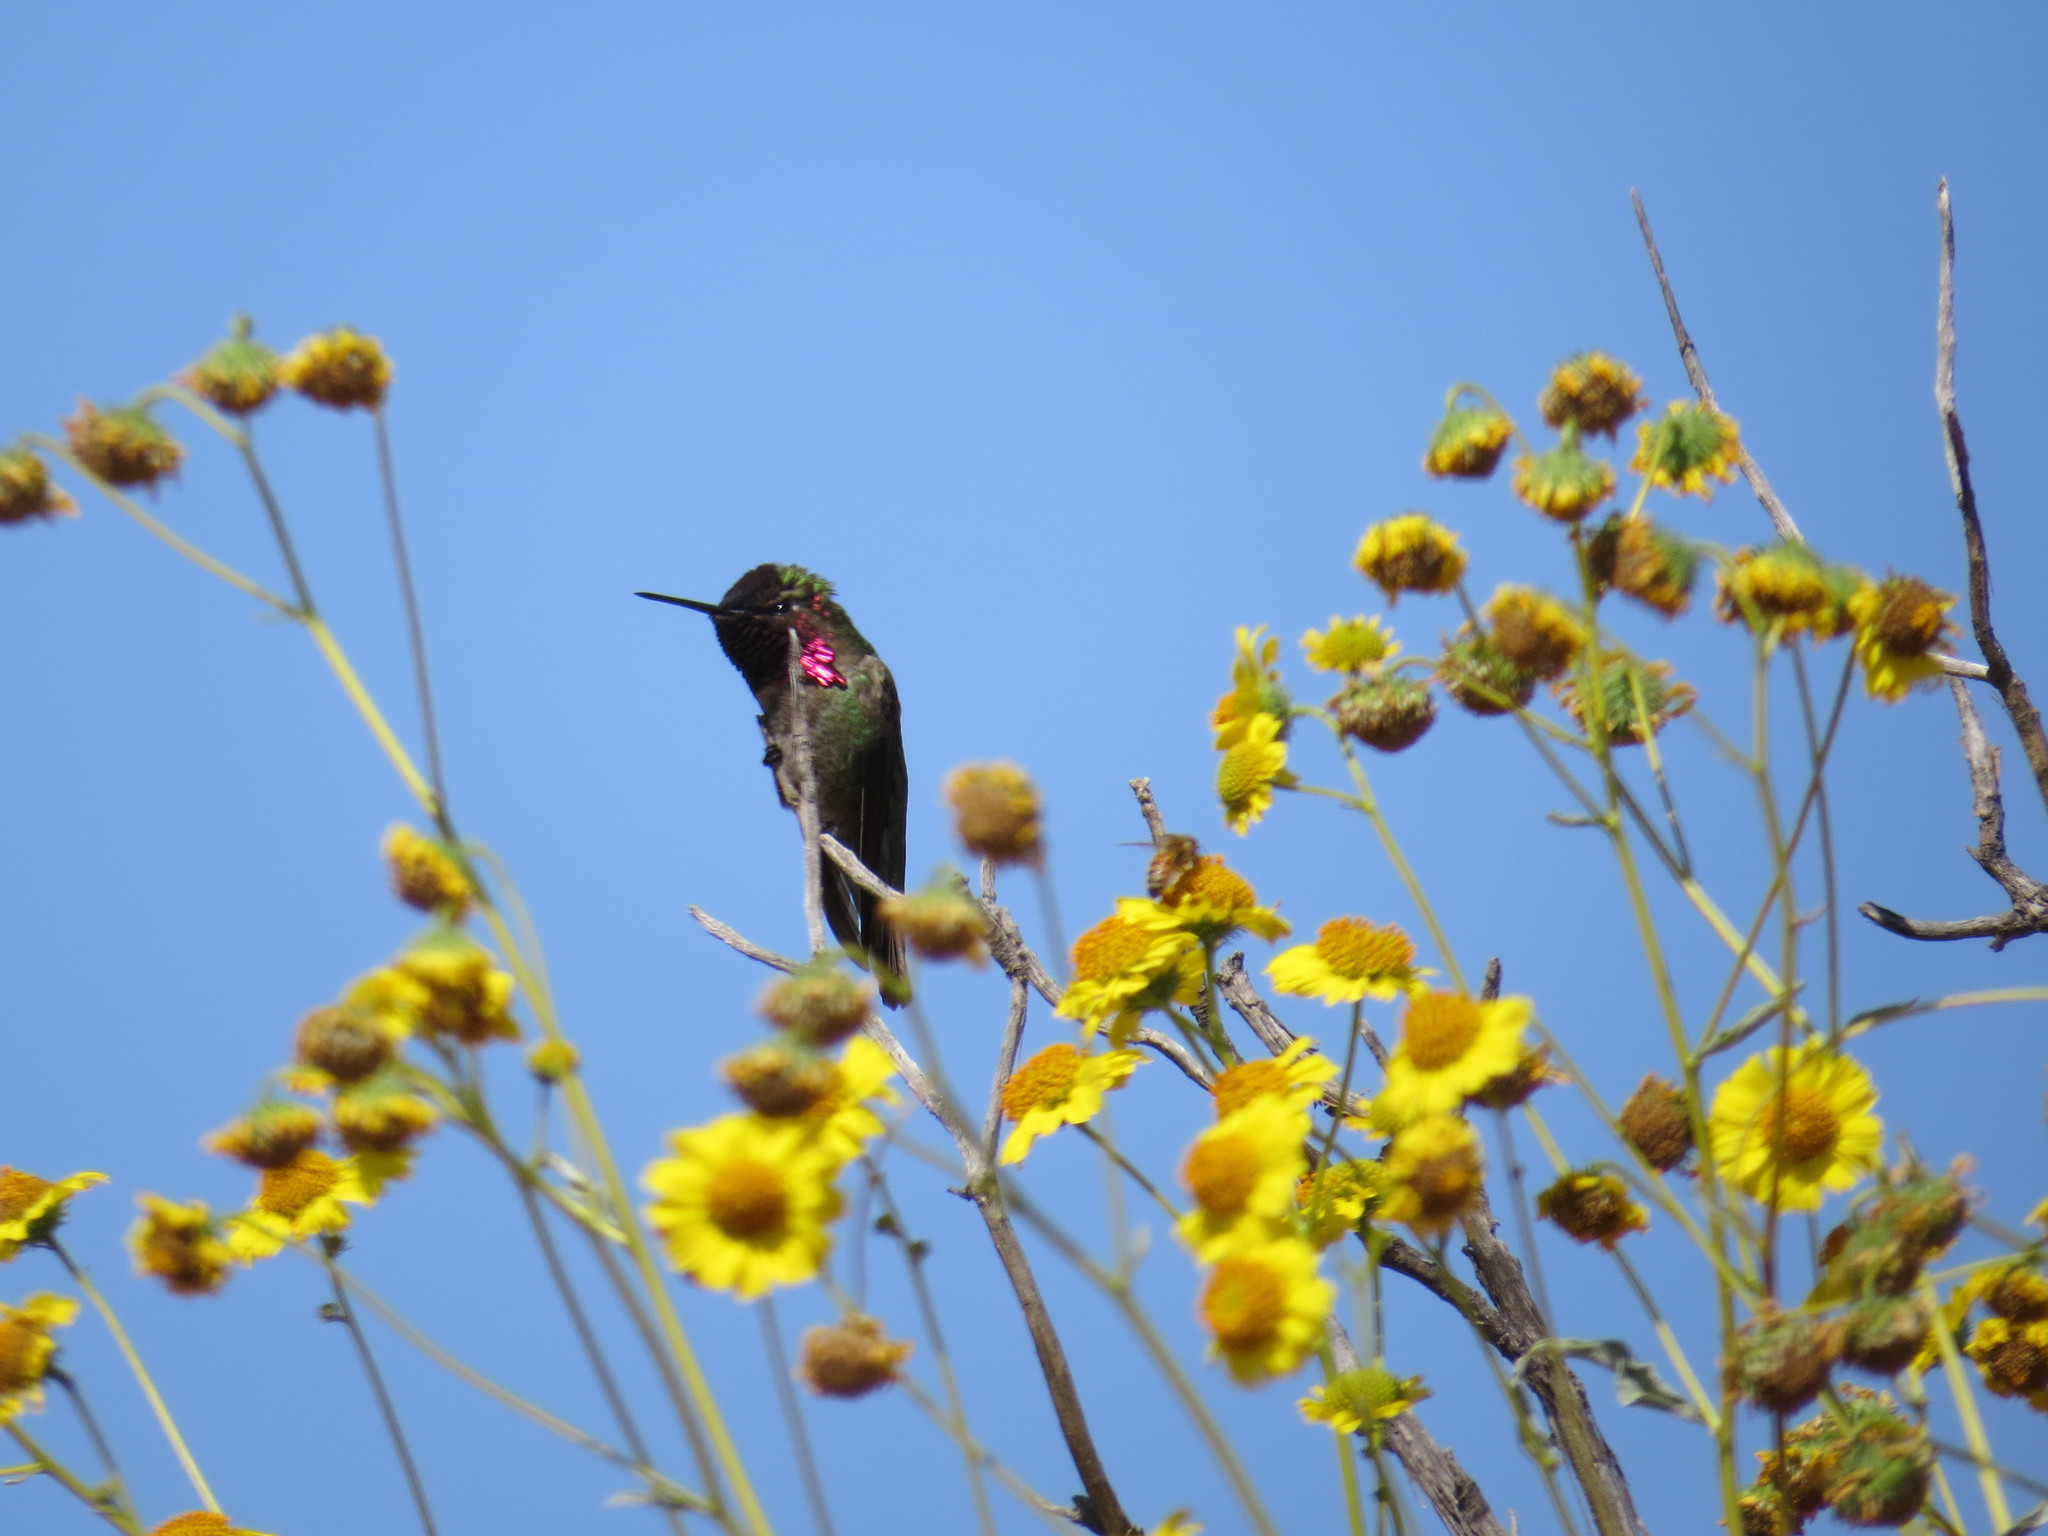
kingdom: Animalia
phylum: Chordata
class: Aves
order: Apodiformes
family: Trochilidae
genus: Calypte
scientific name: Calypte anna
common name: Anna's hummingbird
